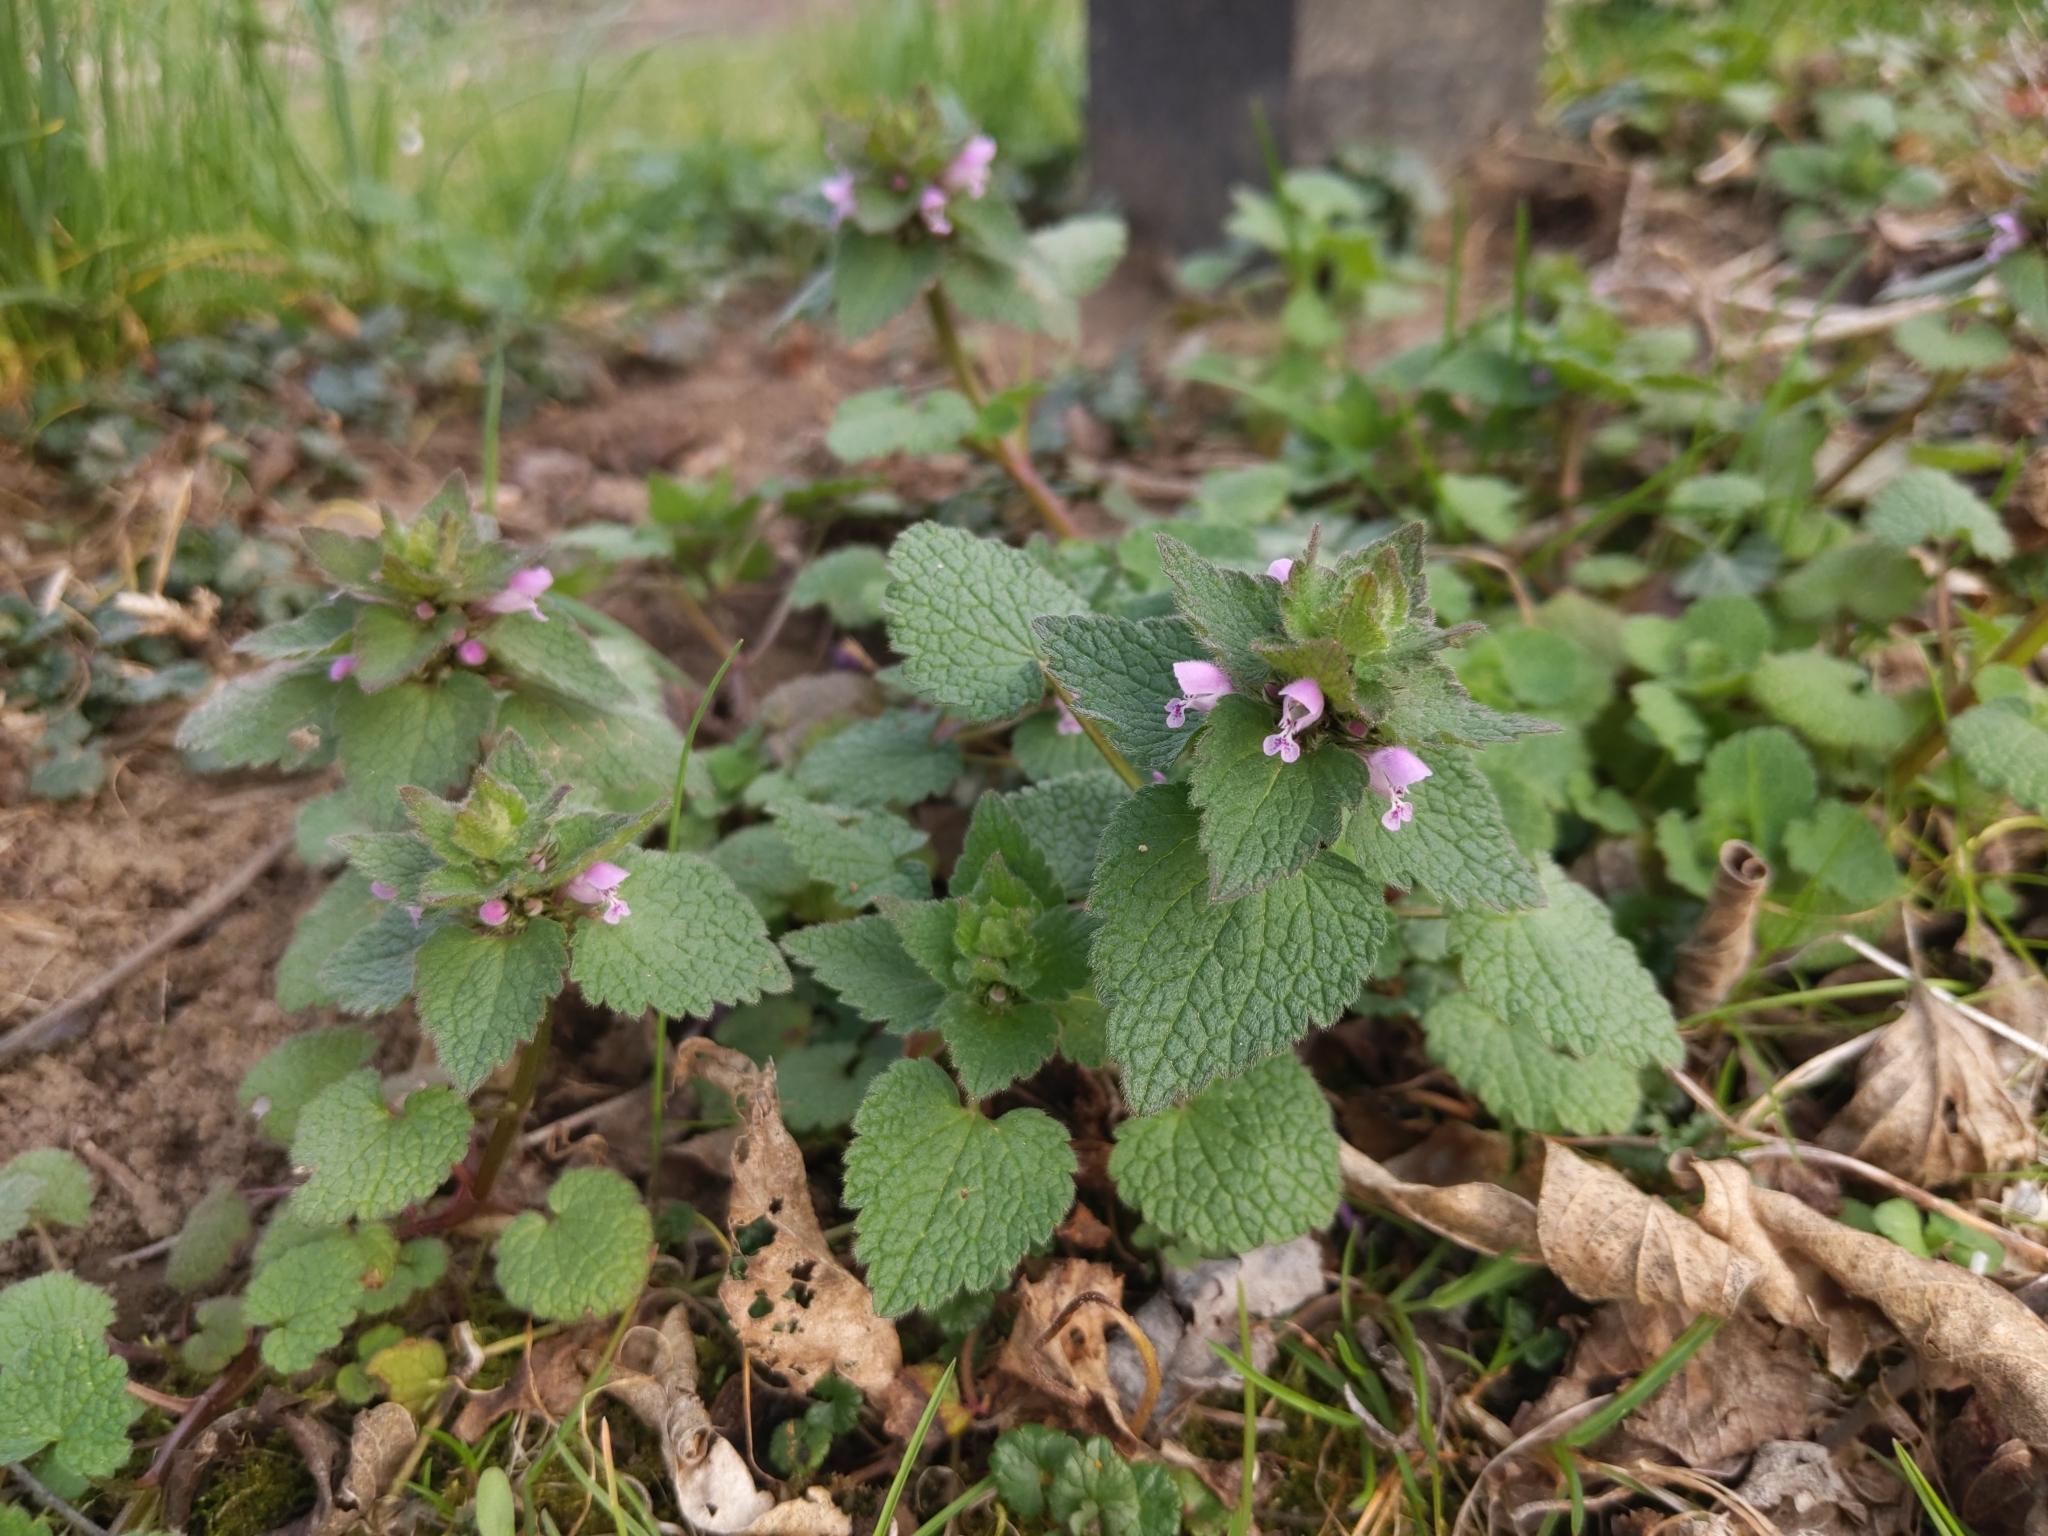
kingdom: Plantae
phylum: Tracheophyta
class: Magnoliopsida
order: Lamiales
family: Lamiaceae
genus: Lamium
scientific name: Lamium purpureum
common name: Red dead-nettle
